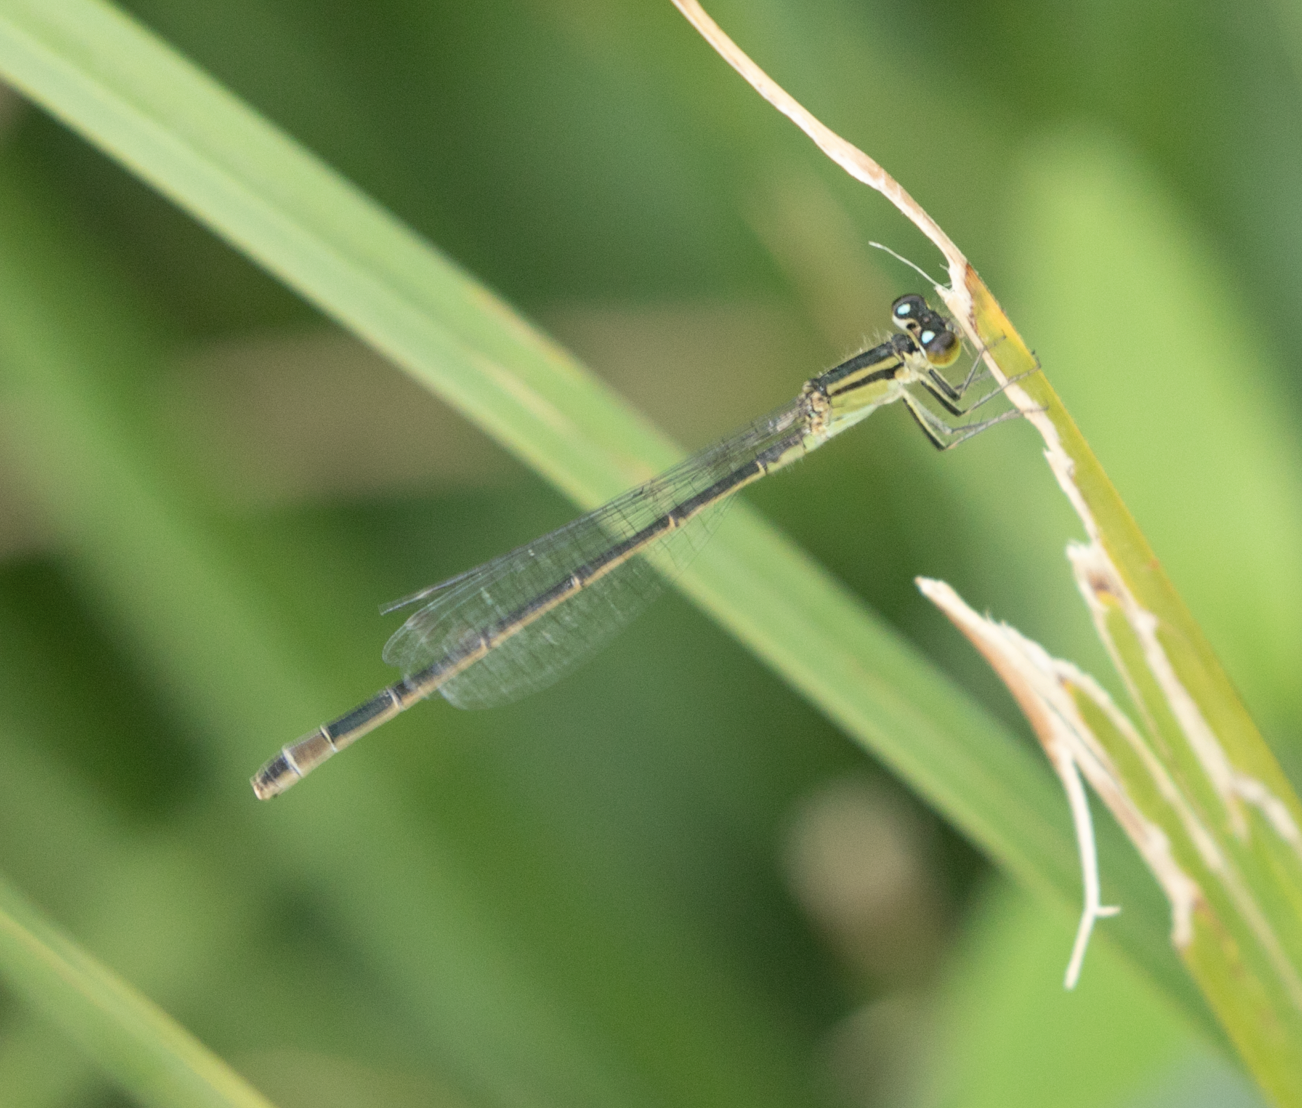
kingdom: Animalia
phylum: Arthropoda
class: Insecta
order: Odonata
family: Coenagrionidae
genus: Ischnura
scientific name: Ischnura elegans
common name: Blue-tailed damselfly
